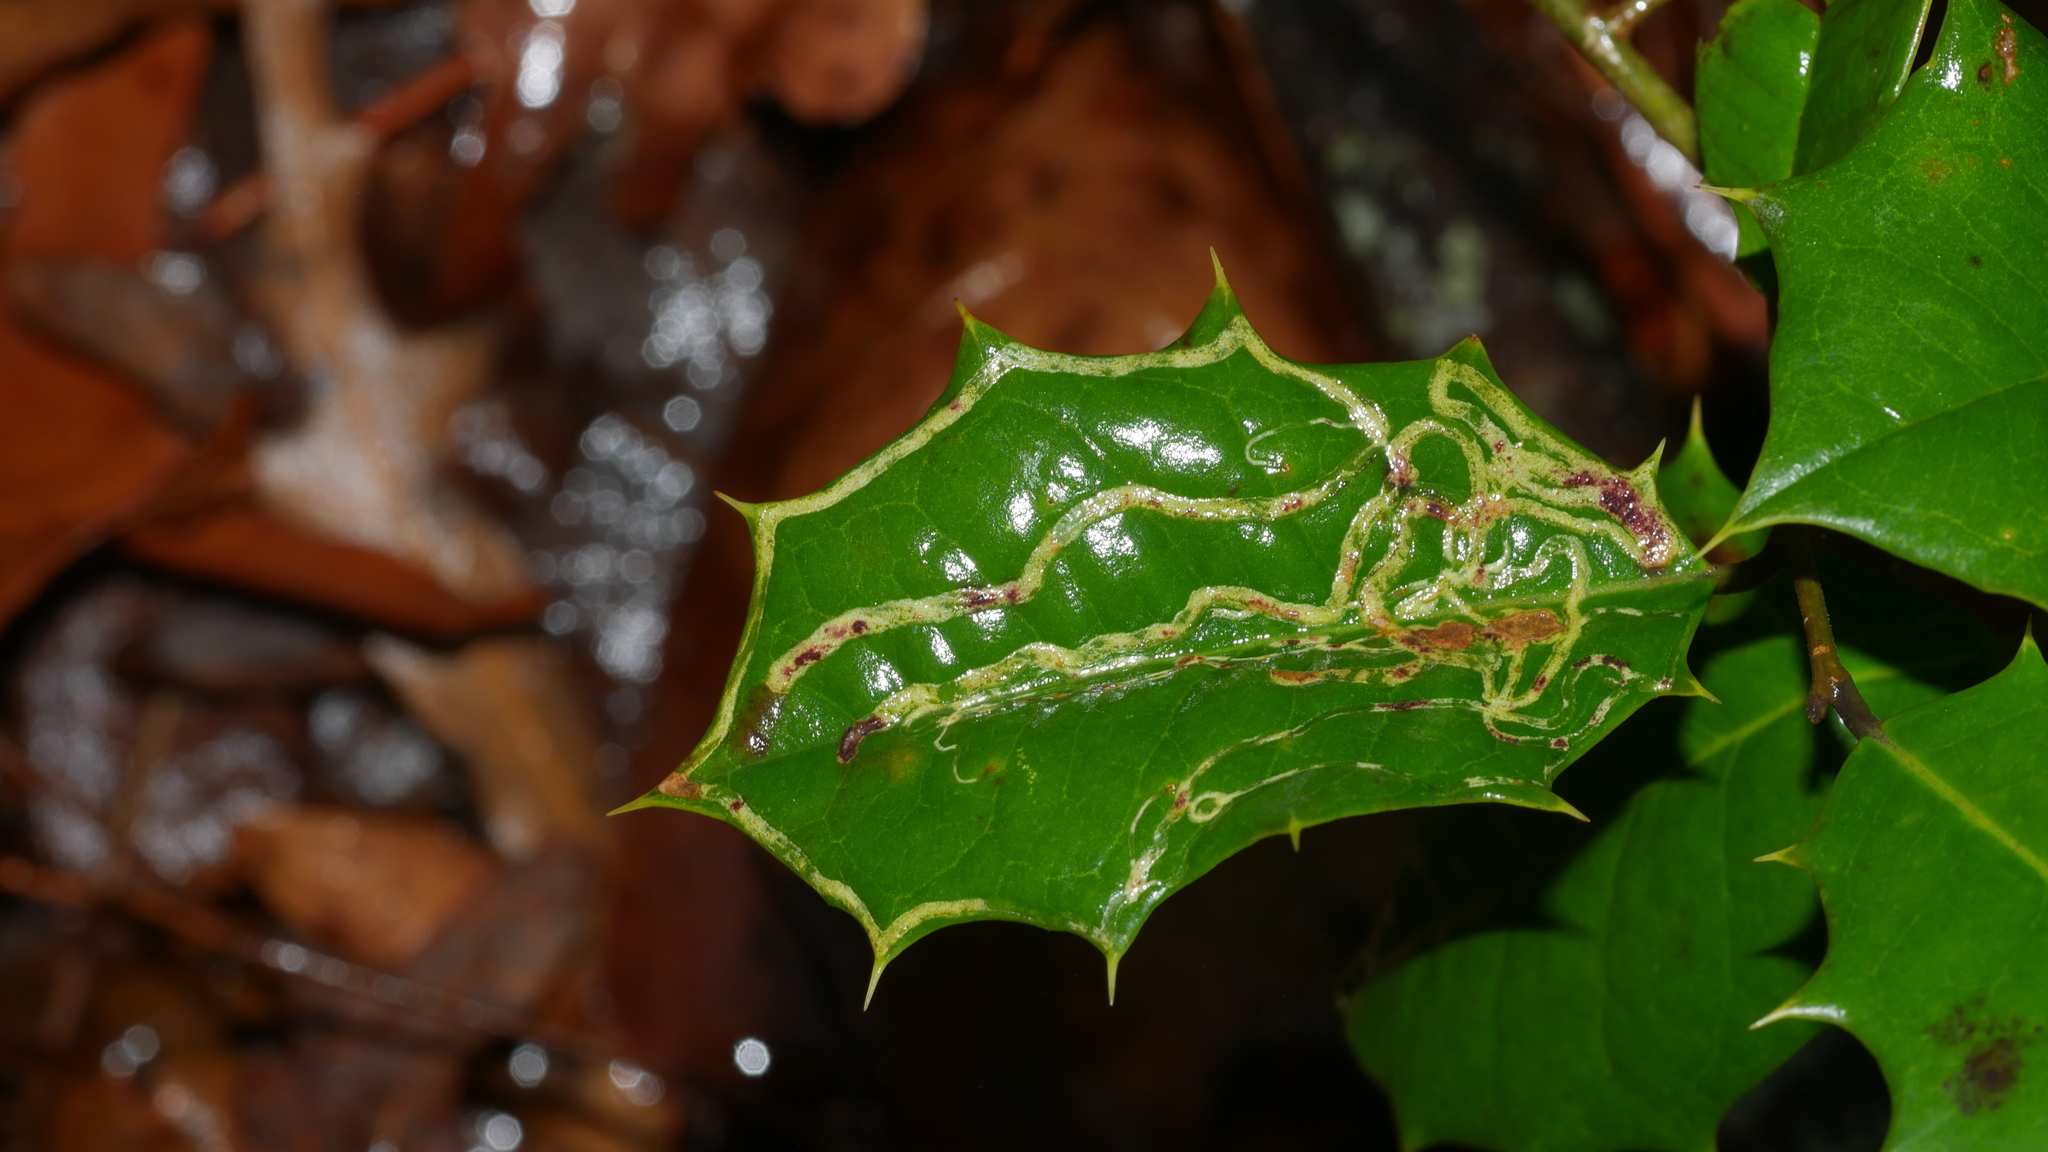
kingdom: Animalia
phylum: Arthropoda
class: Insecta
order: Diptera
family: Agromyzidae
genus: Phytomyza
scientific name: Phytomyza opacae
